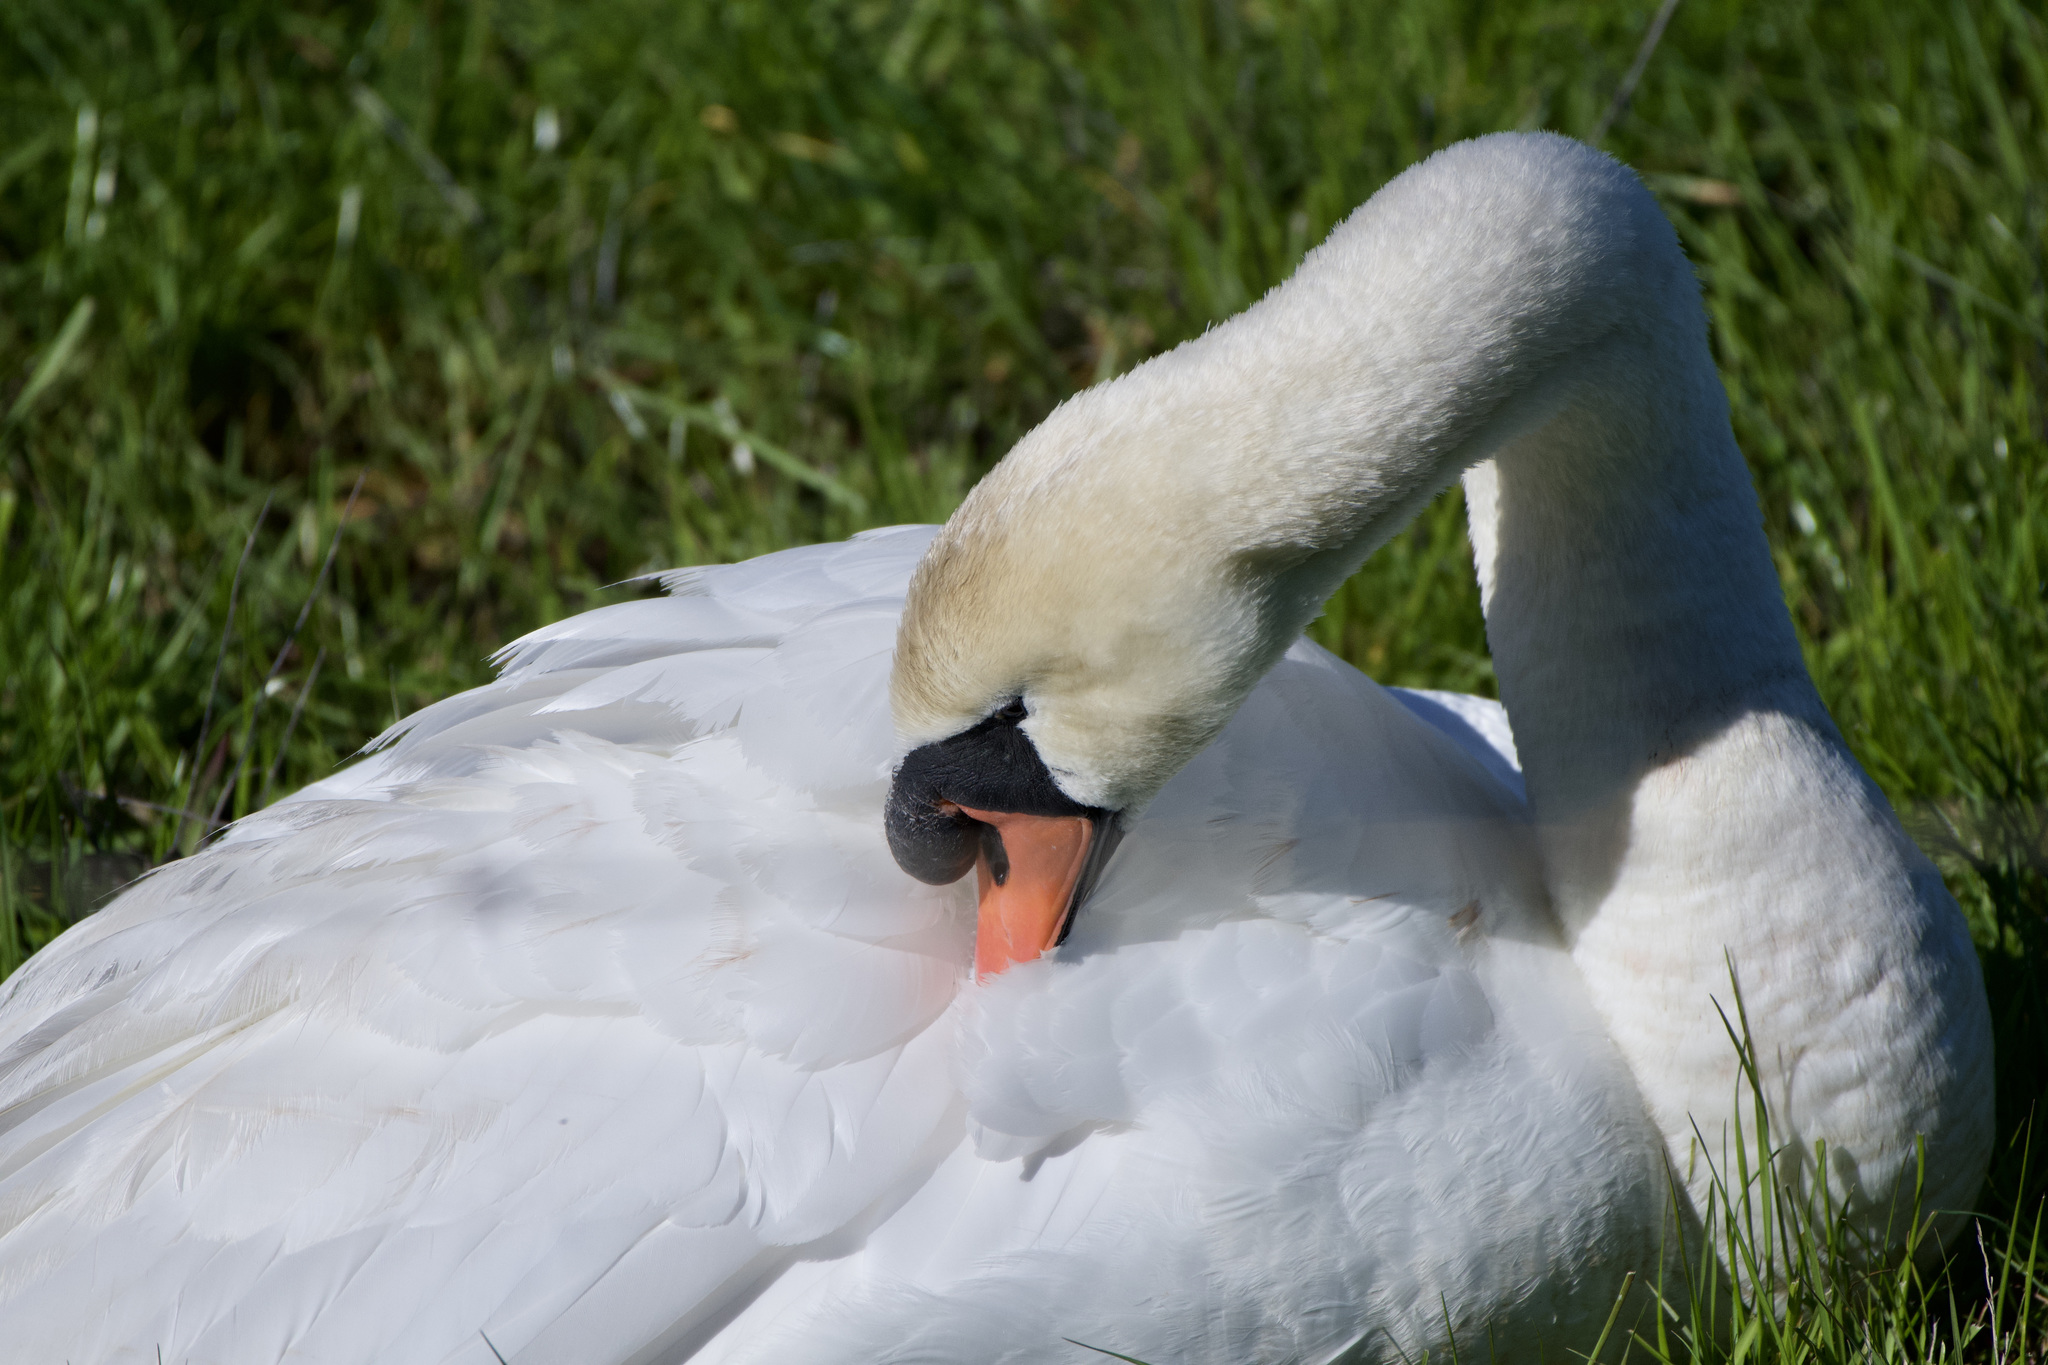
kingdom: Animalia
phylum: Chordata
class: Aves
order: Anseriformes
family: Anatidae
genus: Cygnus
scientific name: Cygnus olor
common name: Mute swan
